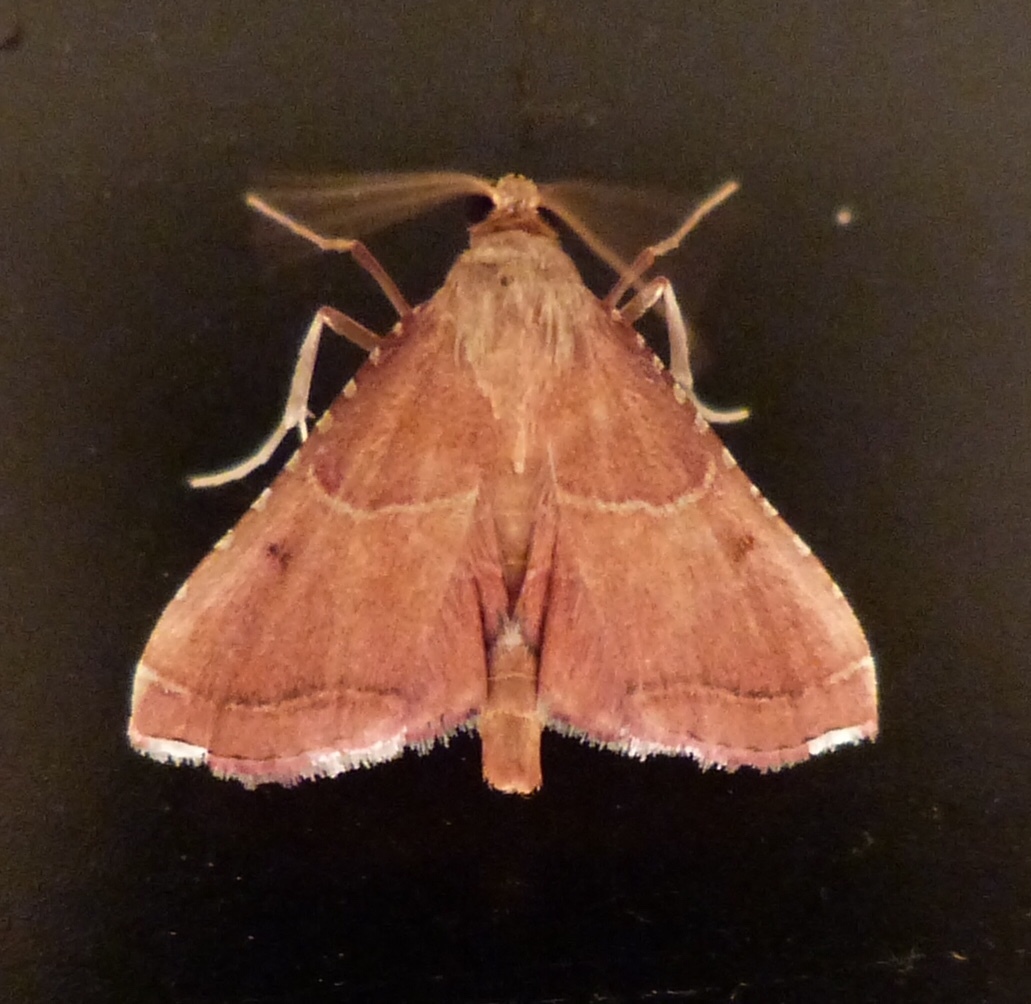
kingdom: Animalia
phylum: Arthropoda
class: Insecta
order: Lepidoptera
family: Pyralidae
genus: Endotricha
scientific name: Endotricha flammealis
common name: Rosy tabby
